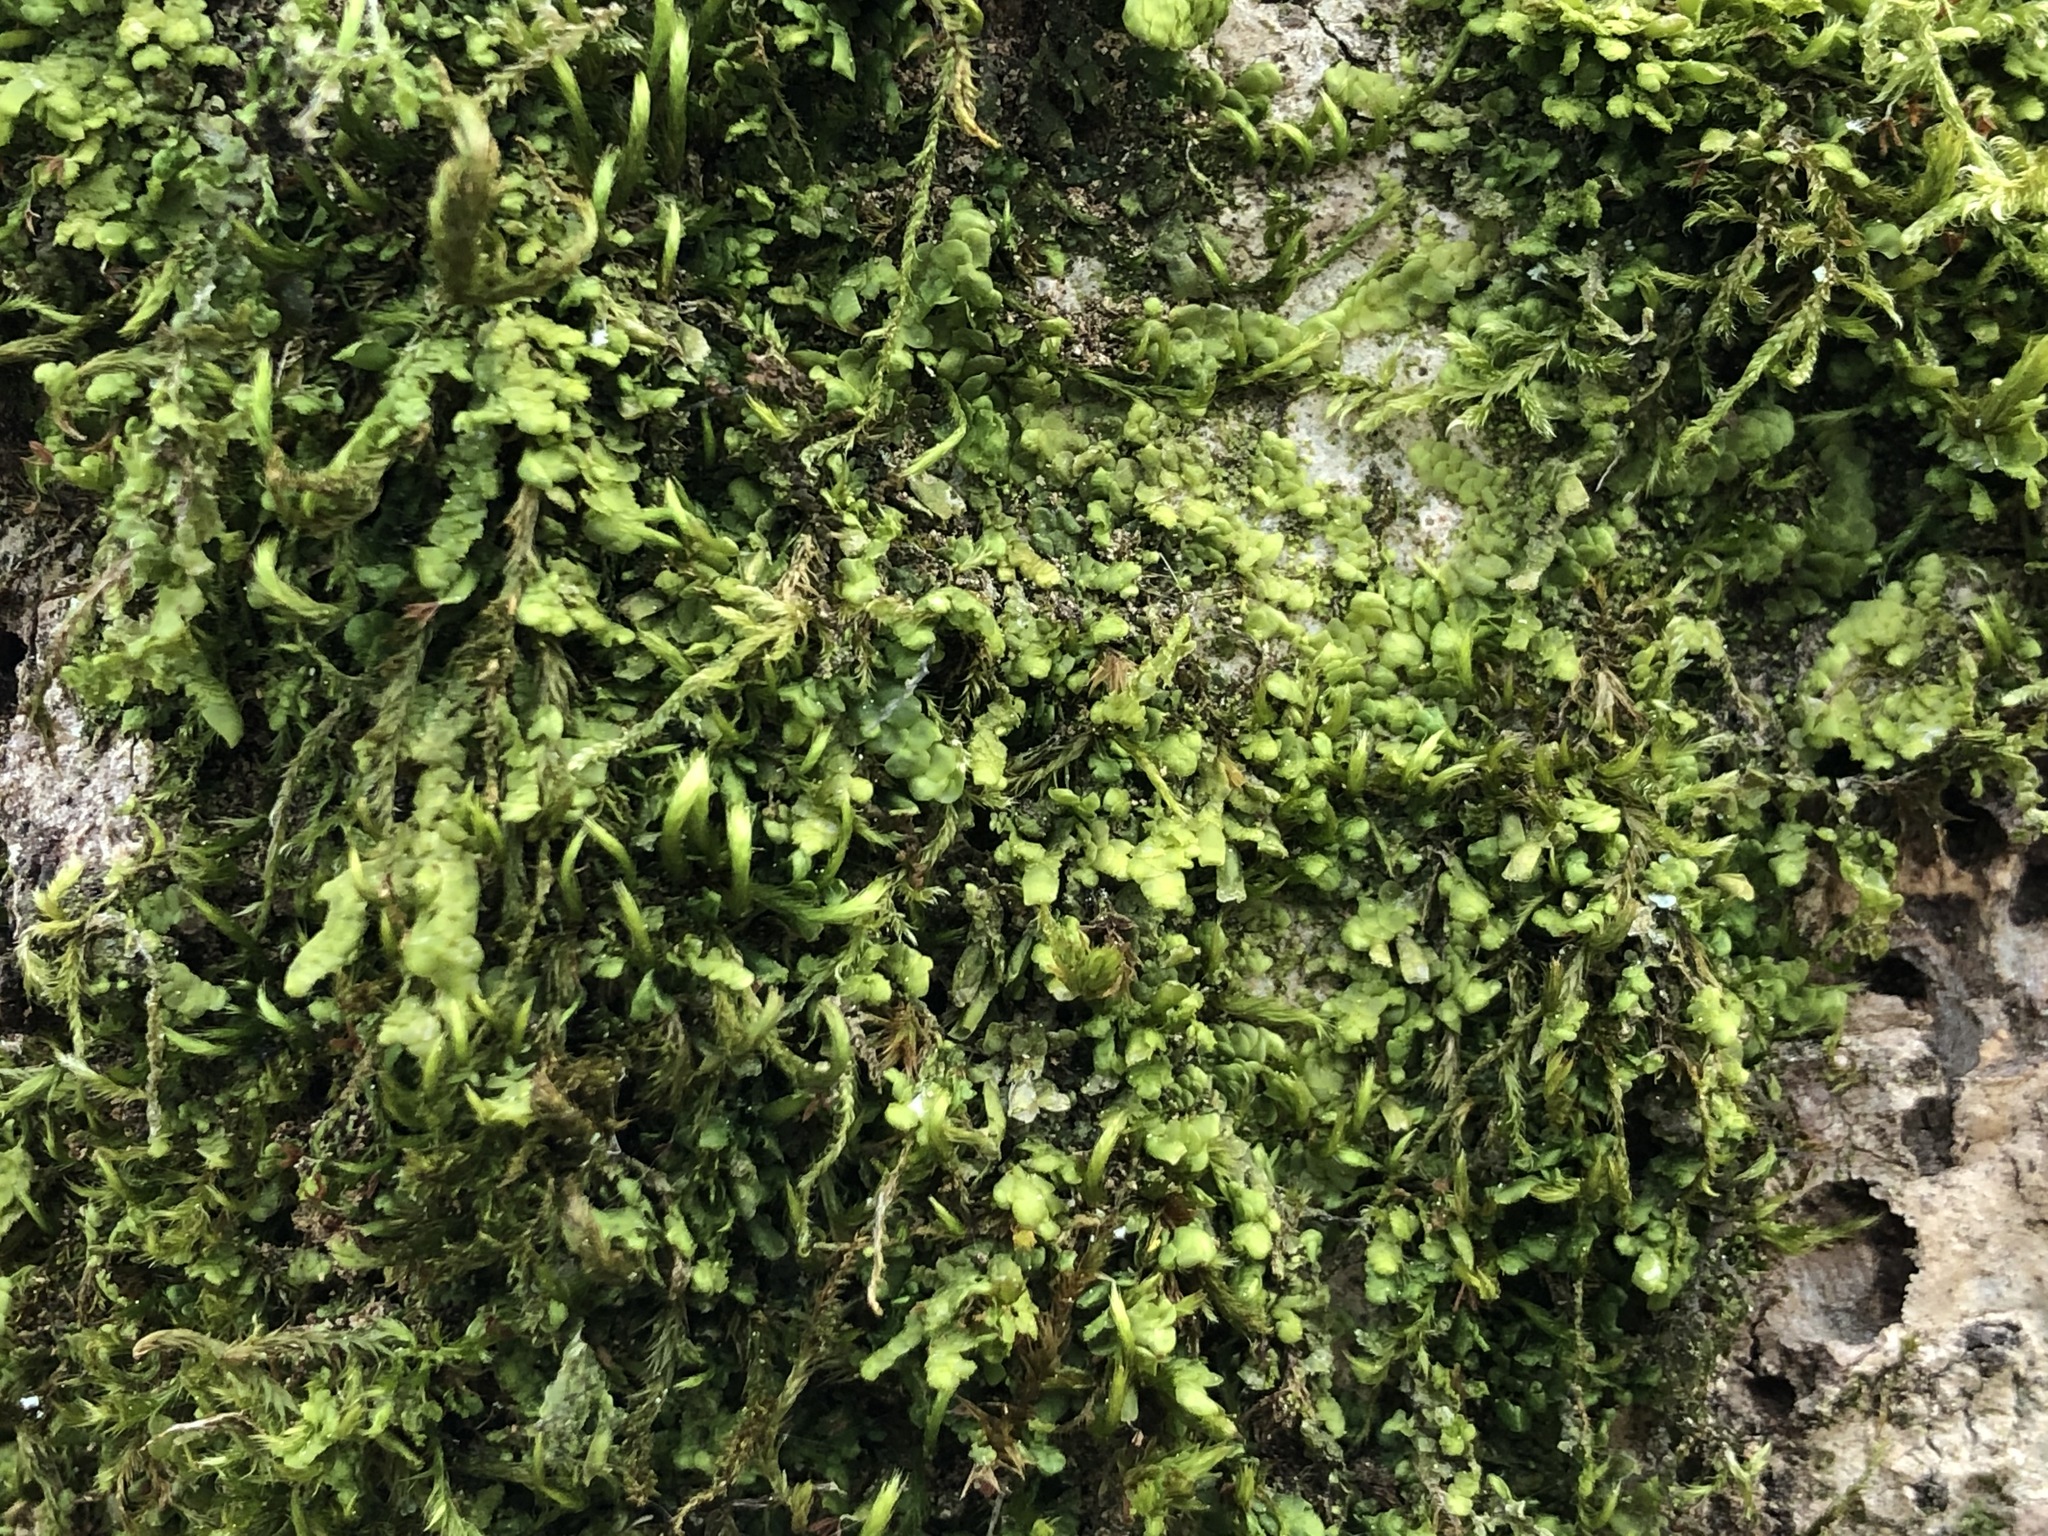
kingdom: Plantae
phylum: Marchantiophyta
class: Jungermanniopsida
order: Porellales
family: Radulaceae
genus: Radula
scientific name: Radula complanata
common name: Flat-leaved scalewort
